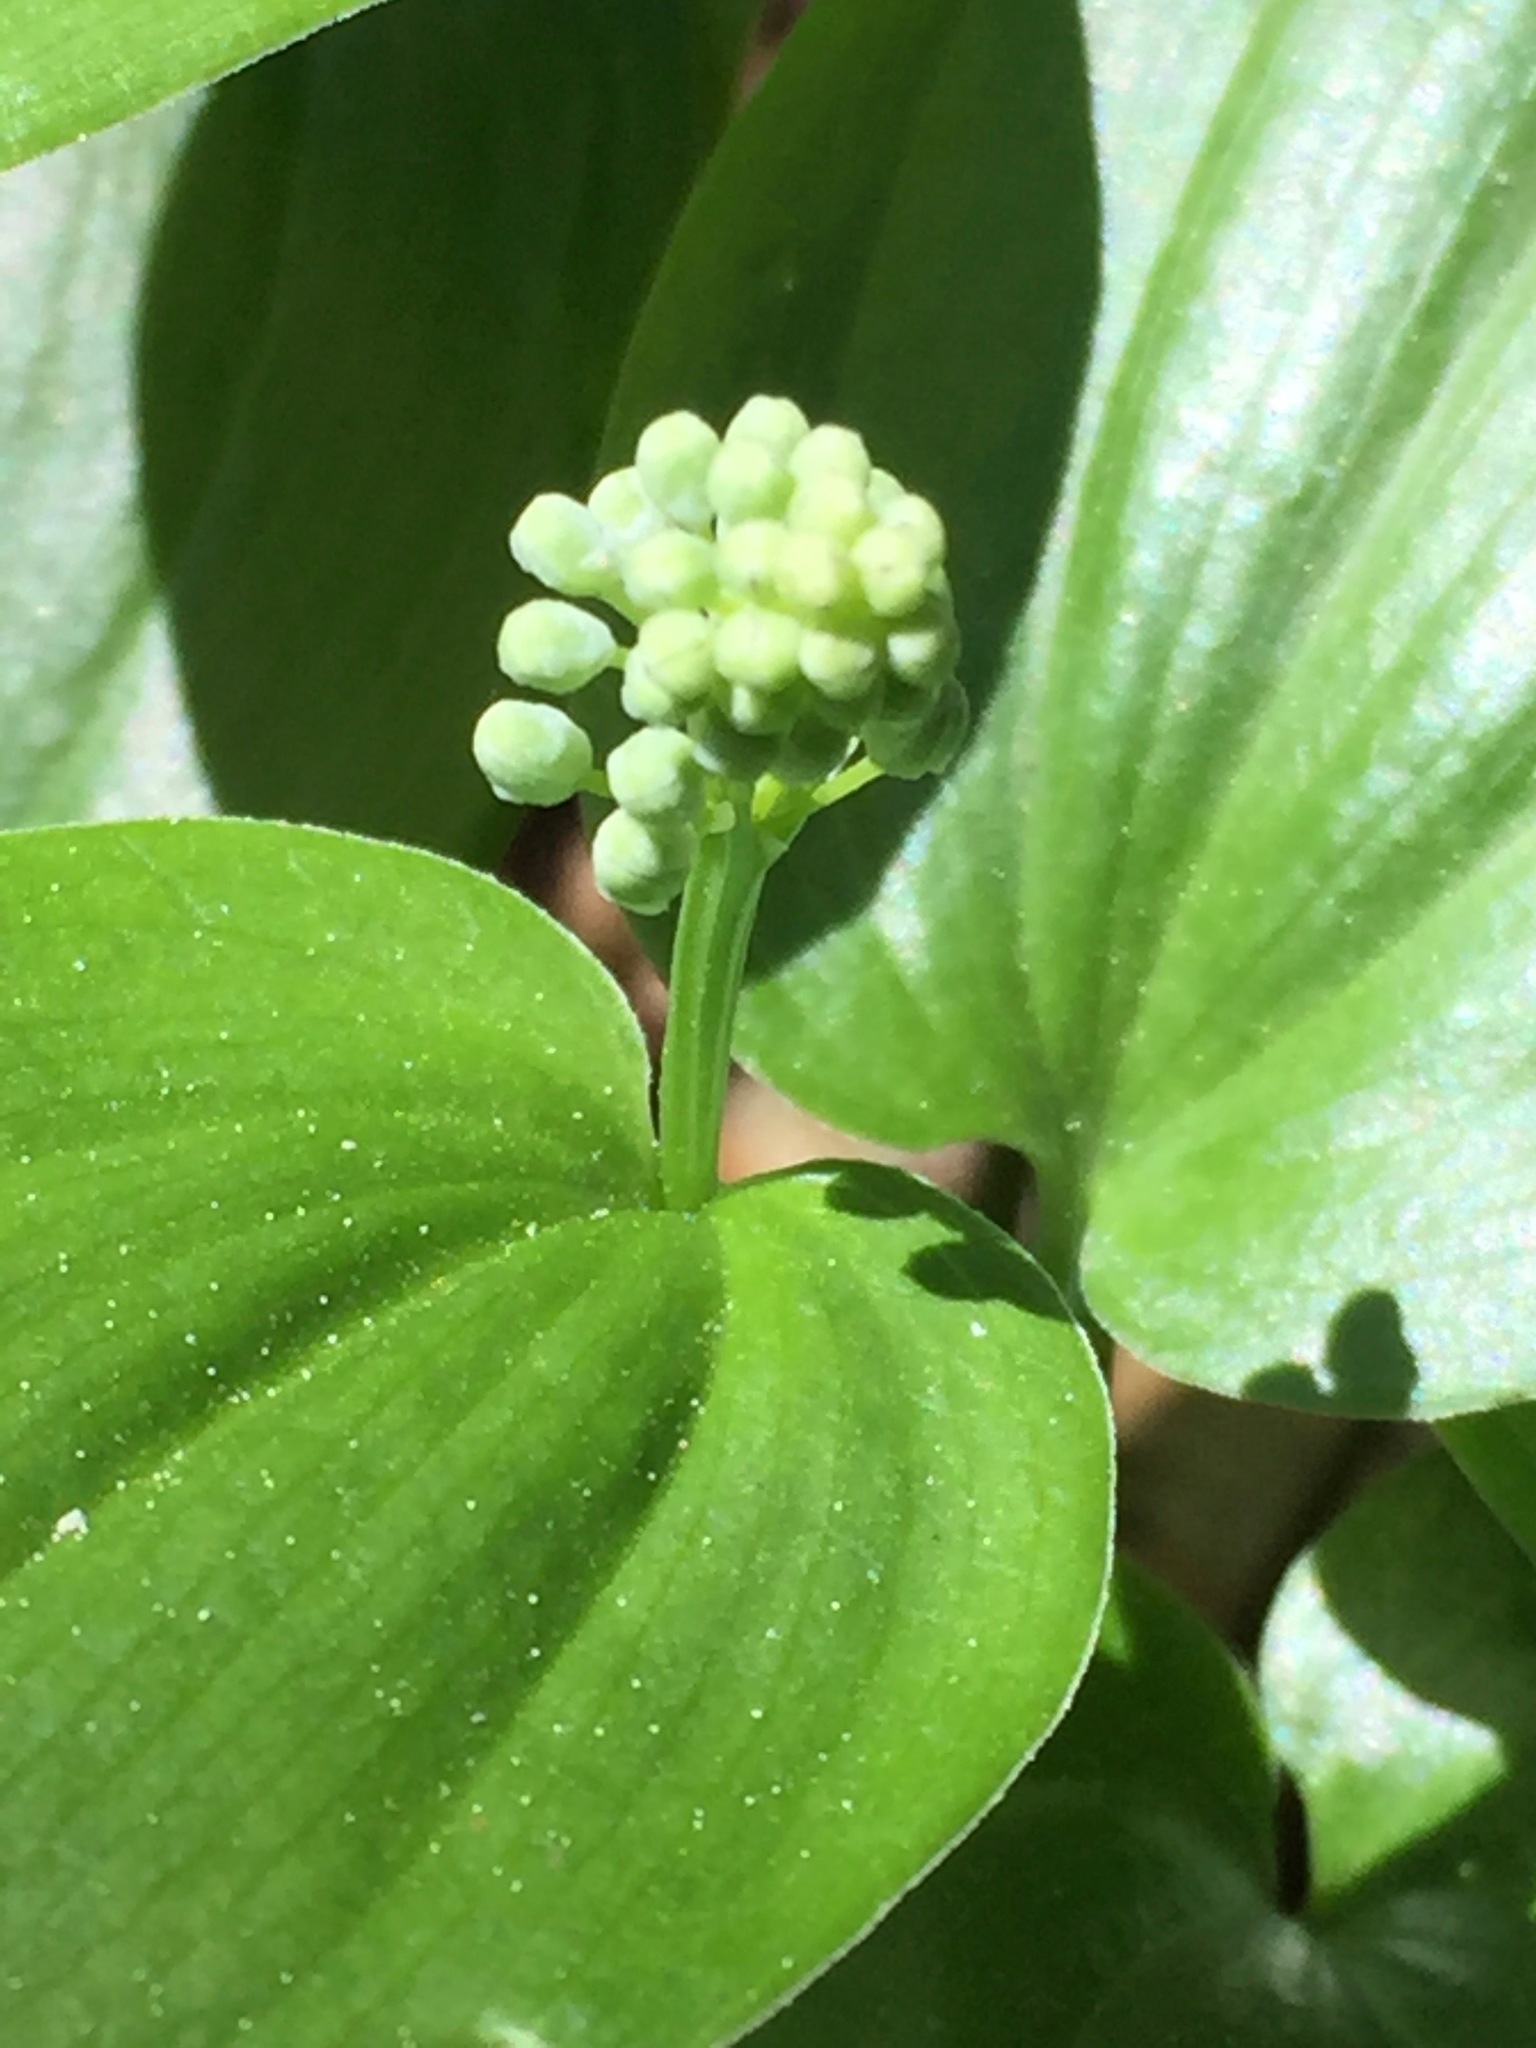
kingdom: Plantae
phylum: Tracheophyta
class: Liliopsida
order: Asparagales
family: Asparagaceae
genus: Maianthemum
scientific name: Maianthemum canadense
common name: False lily-of-the-valley
